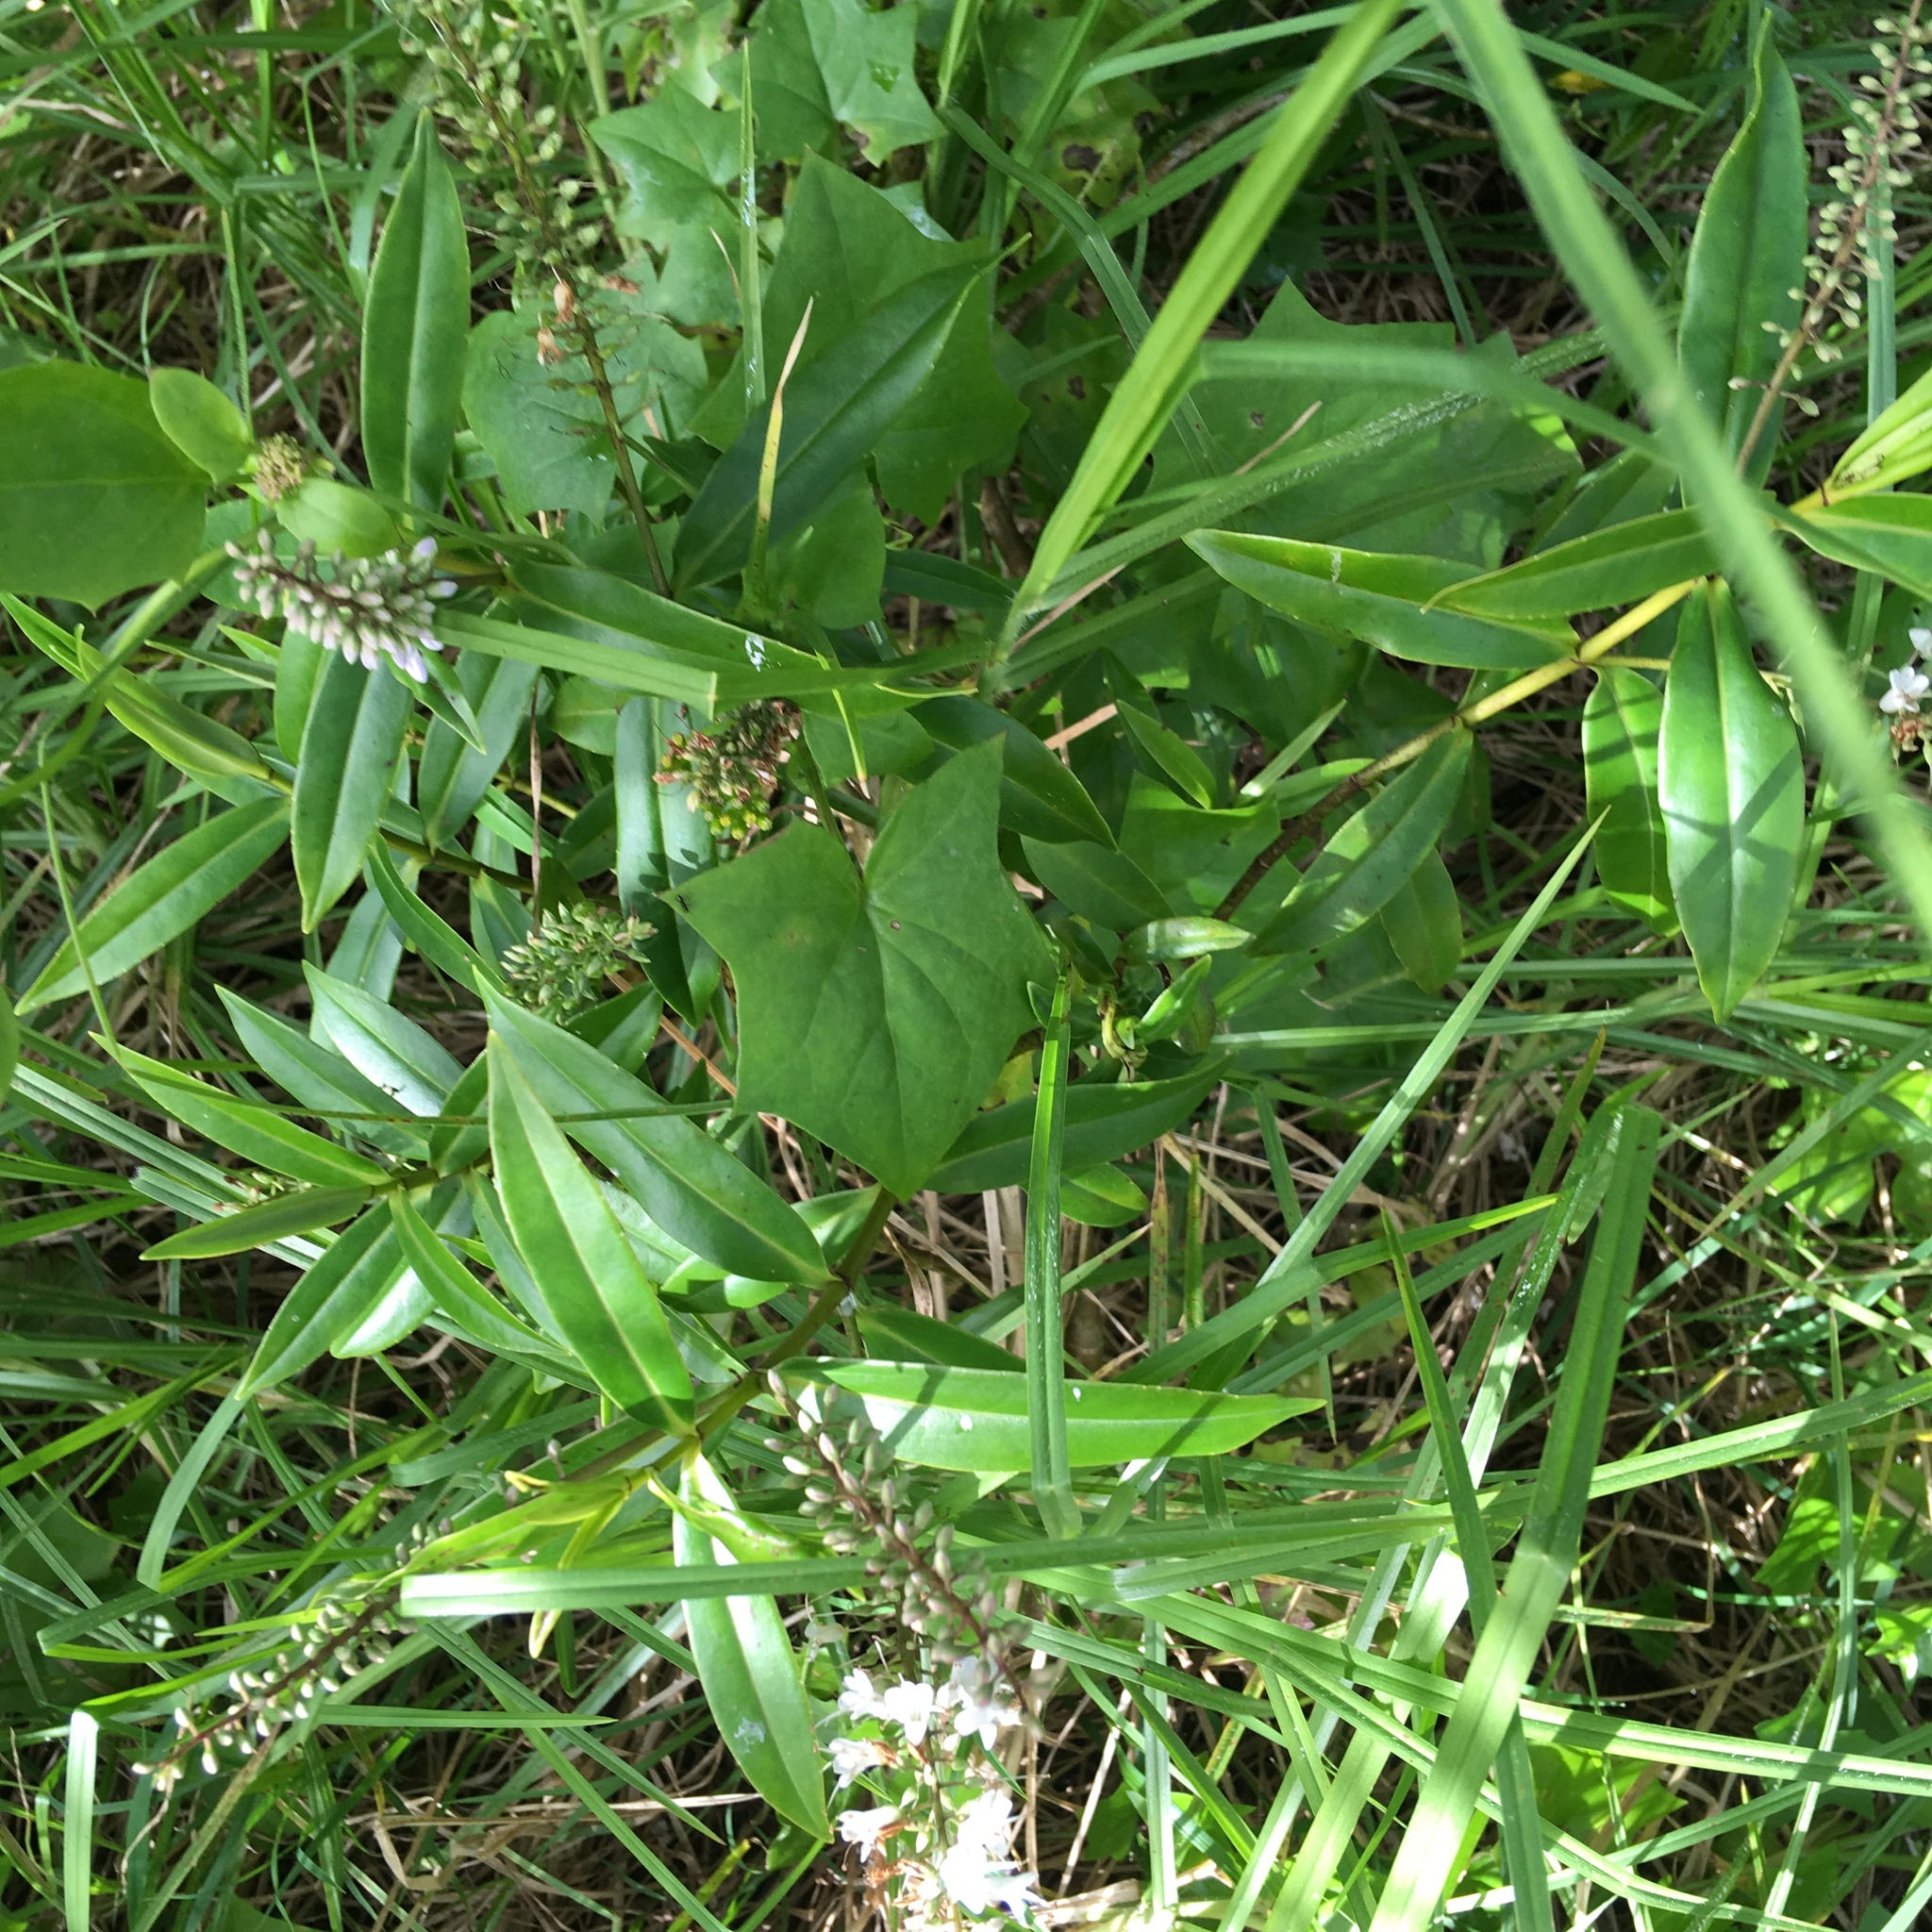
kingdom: Plantae
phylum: Tracheophyta
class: Magnoliopsida
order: Asterales
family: Asteraceae
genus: Delairea
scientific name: Delairea odorata
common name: Cape-ivy
